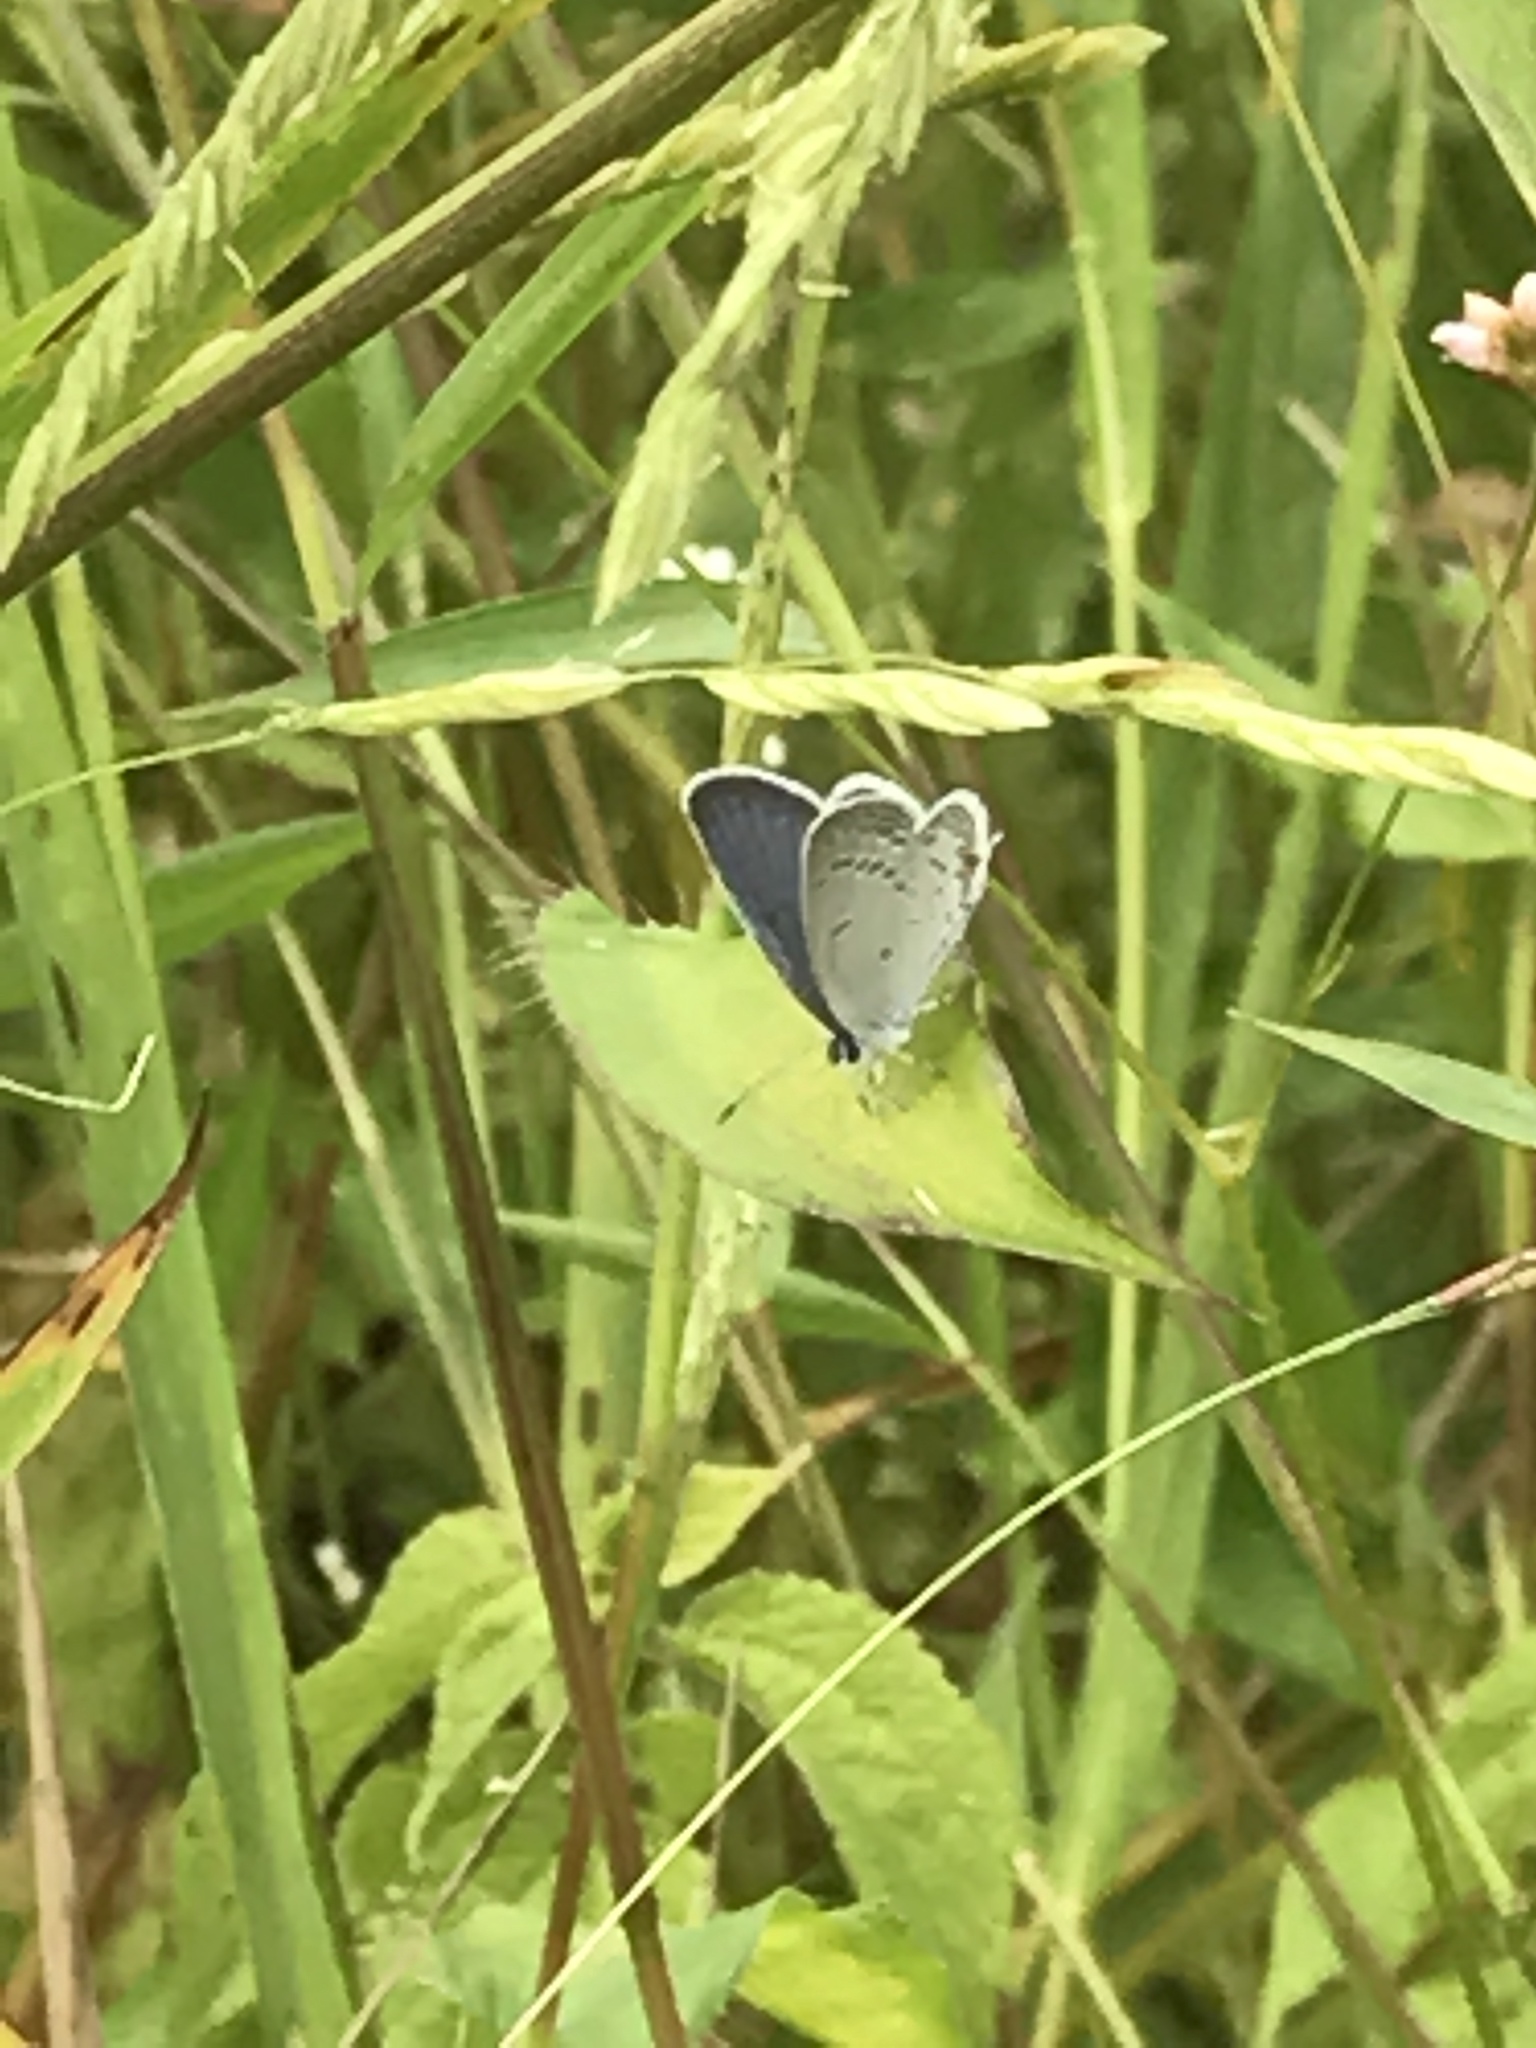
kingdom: Animalia
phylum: Arthropoda
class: Insecta
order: Lepidoptera
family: Lycaenidae
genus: Elkalyce
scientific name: Elkalyce comyntas
